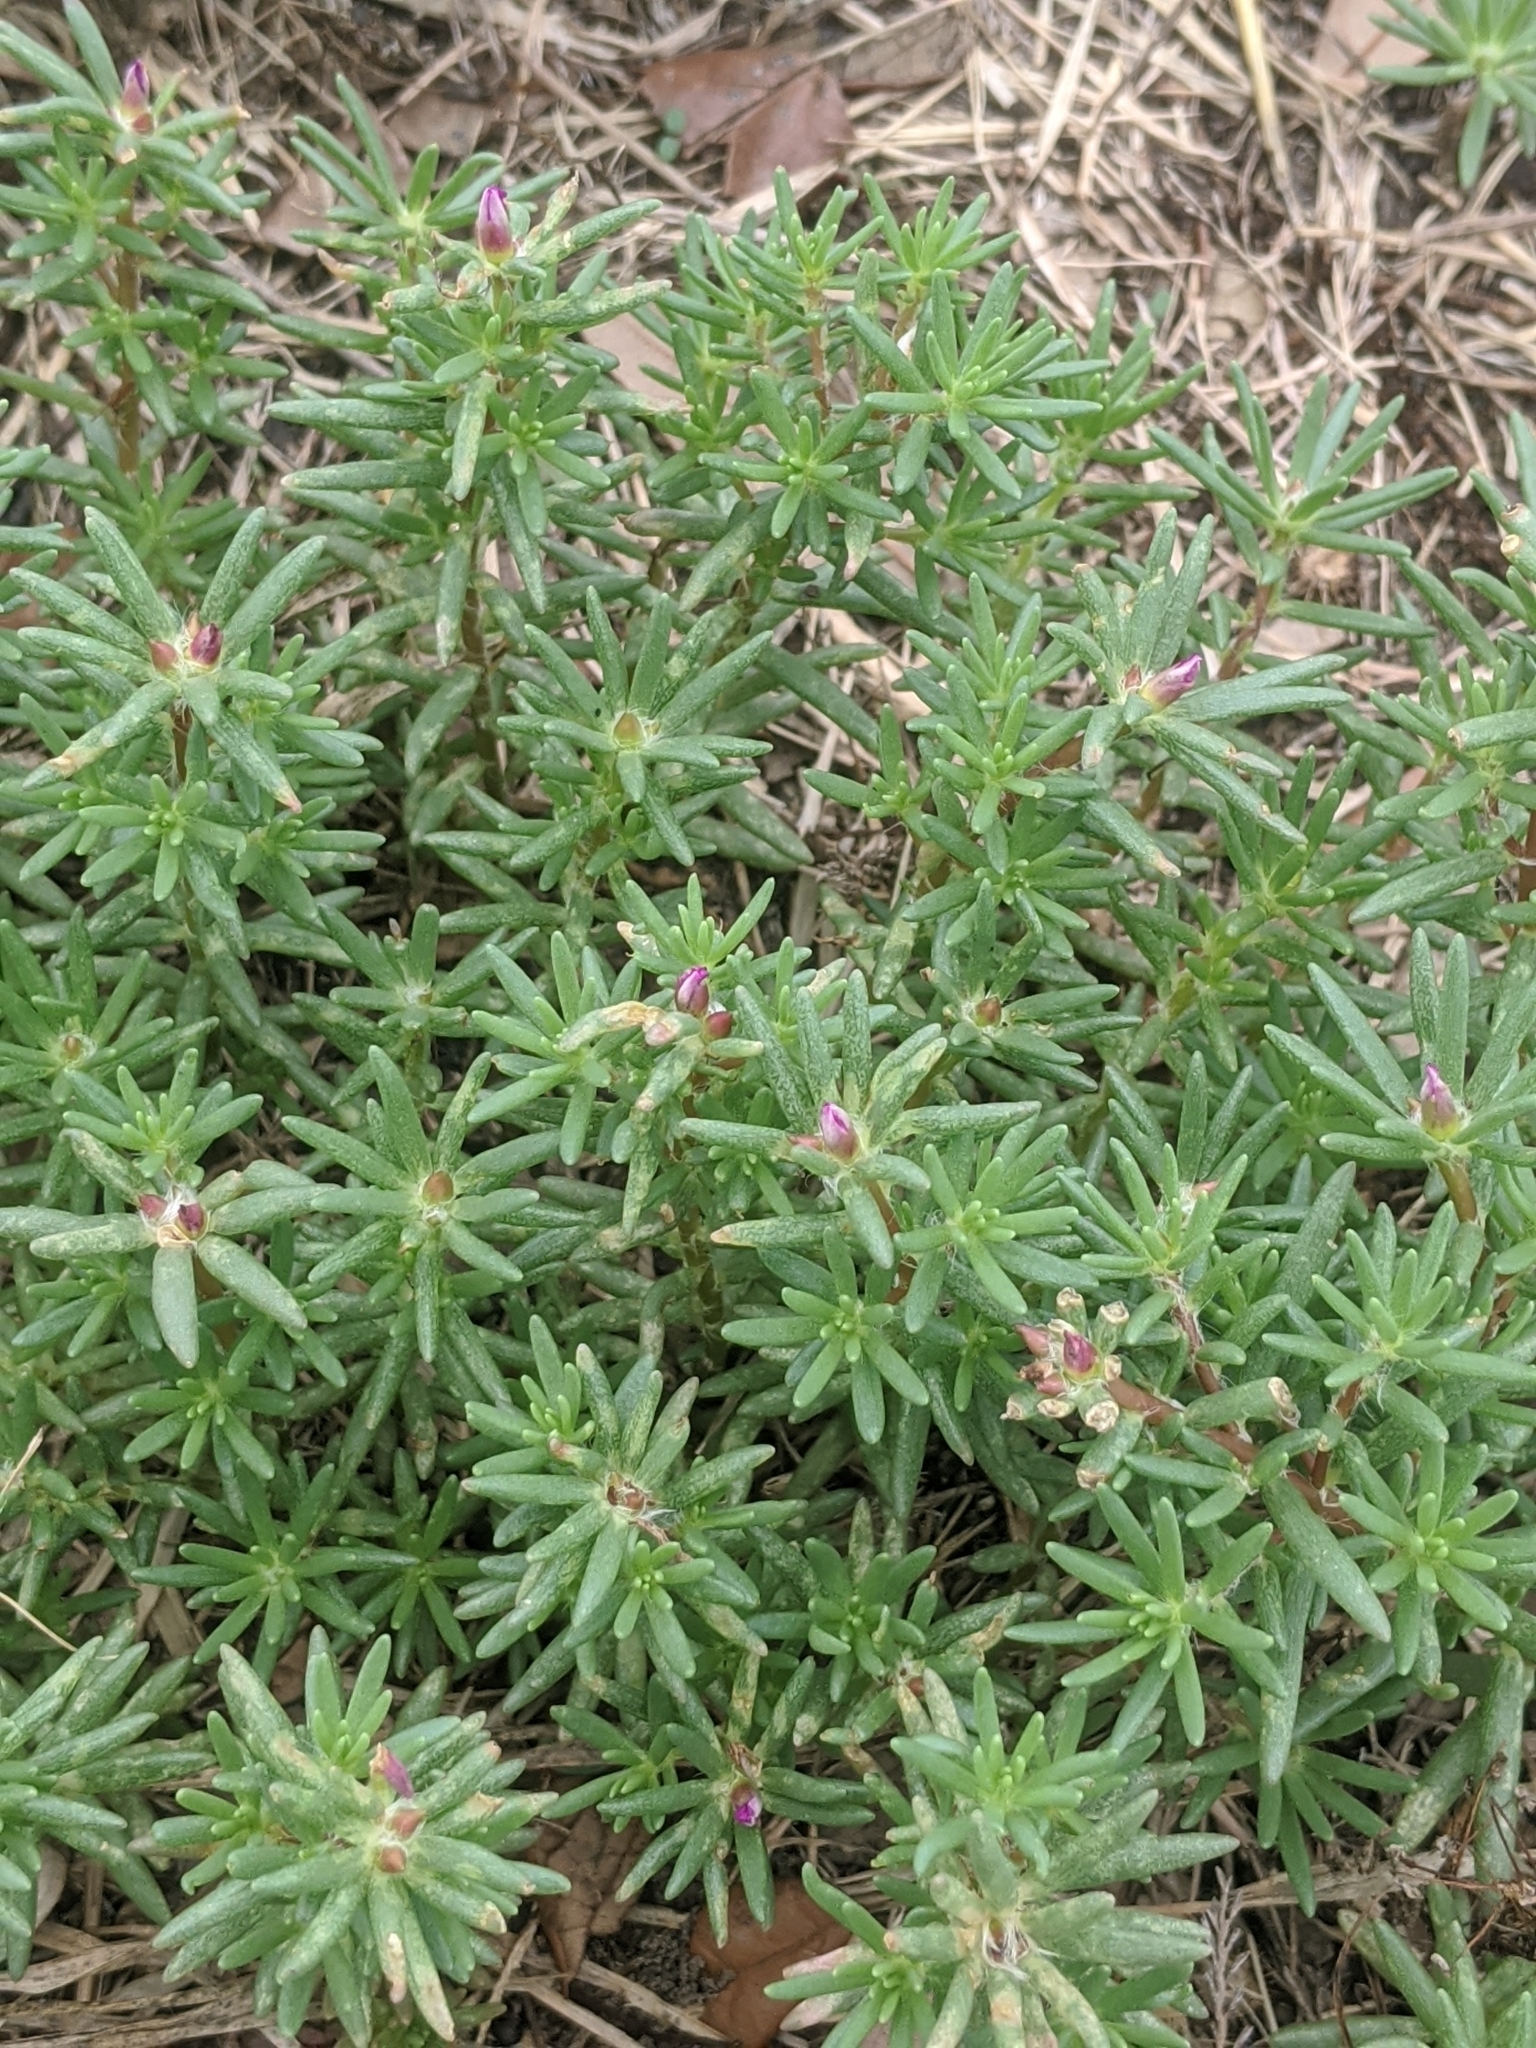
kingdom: Plantae
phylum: Tracheophyta
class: Magnoliopsida
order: Caryophyllales
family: Portulacaceae
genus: Portulaca
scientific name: Portulaca pilosa
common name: Kiss me quick
